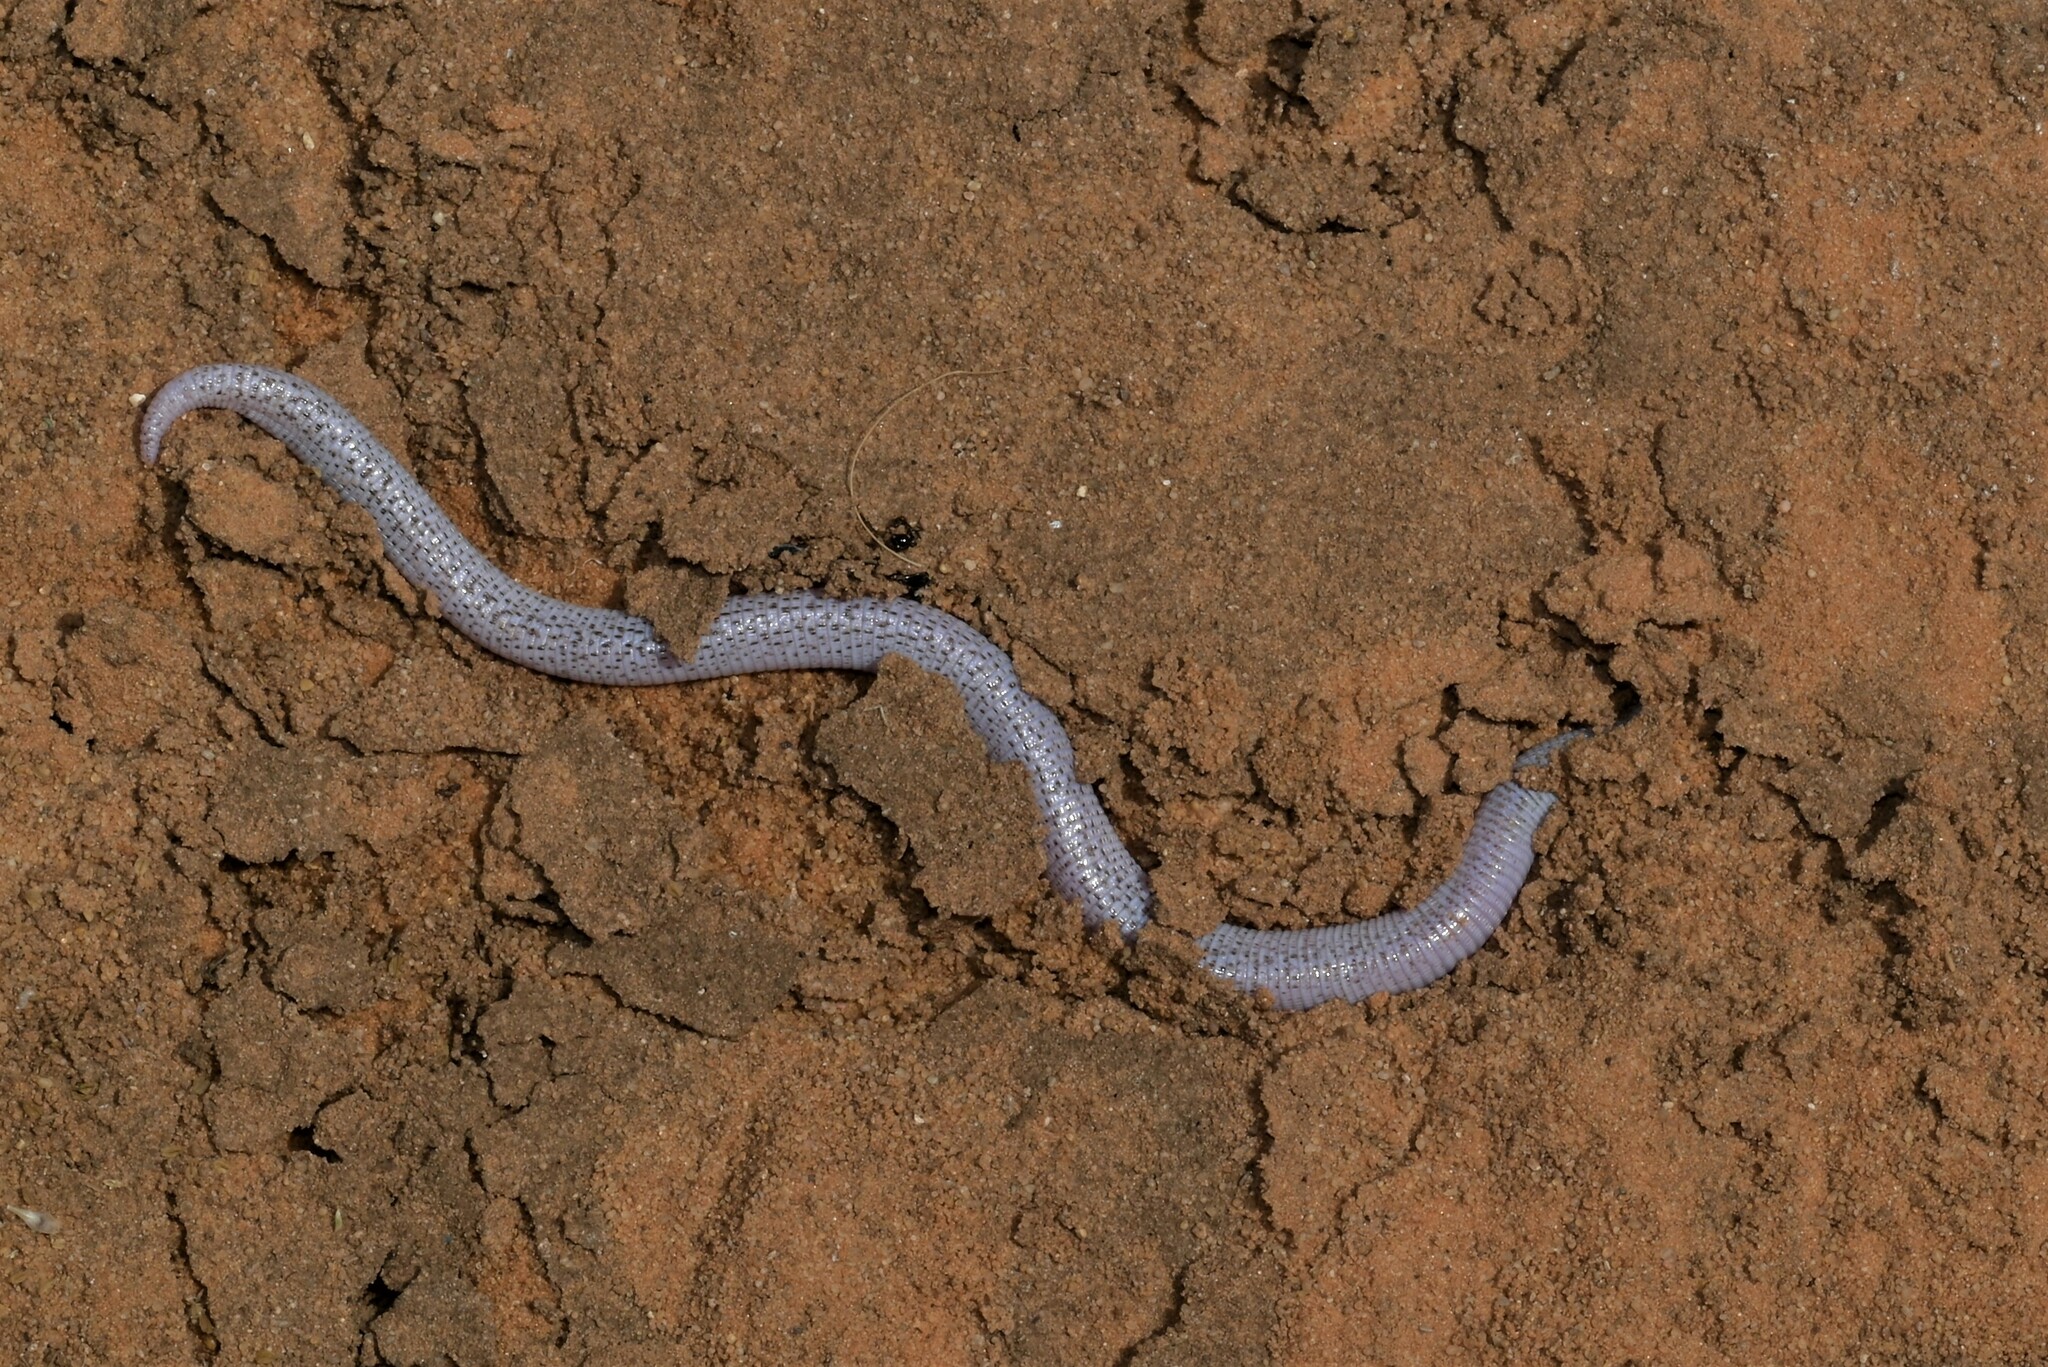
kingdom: Animalia
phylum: Chordata
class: Squamata
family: Trogonophidae
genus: Diplometopon
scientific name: Diplometopon zarudnyi
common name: Zarudnyi's worm lizard
